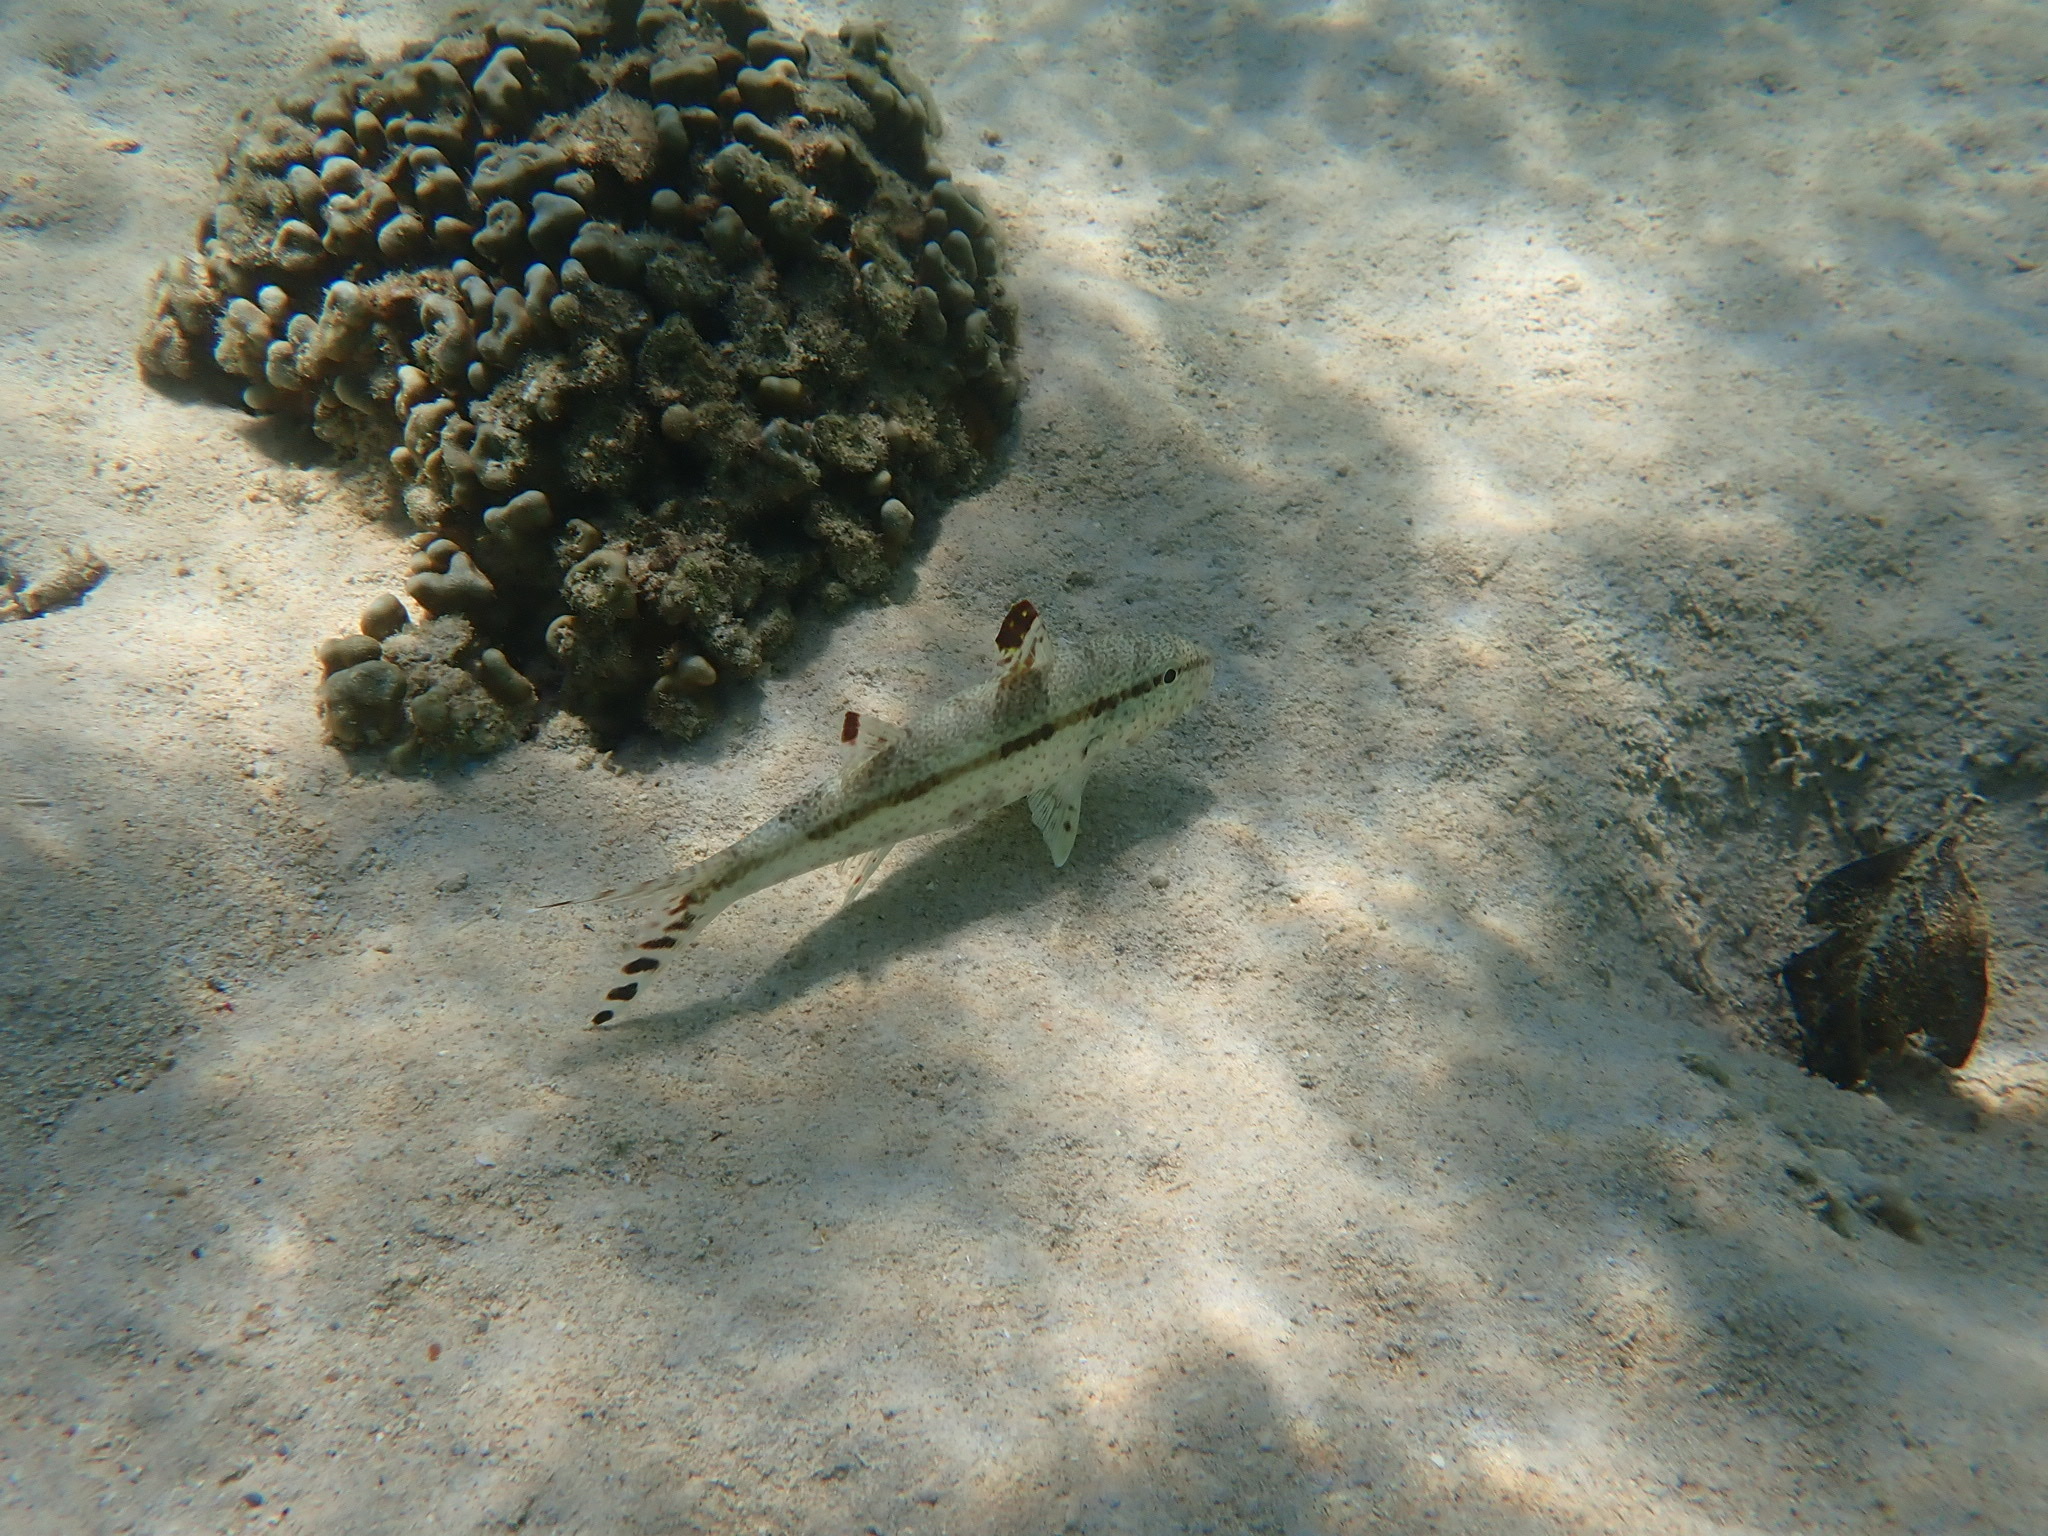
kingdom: Animalia
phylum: Chordata
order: Perciformes
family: Mullidae
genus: Upeneus
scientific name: Upeneus tragula
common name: Freckled goatfish
